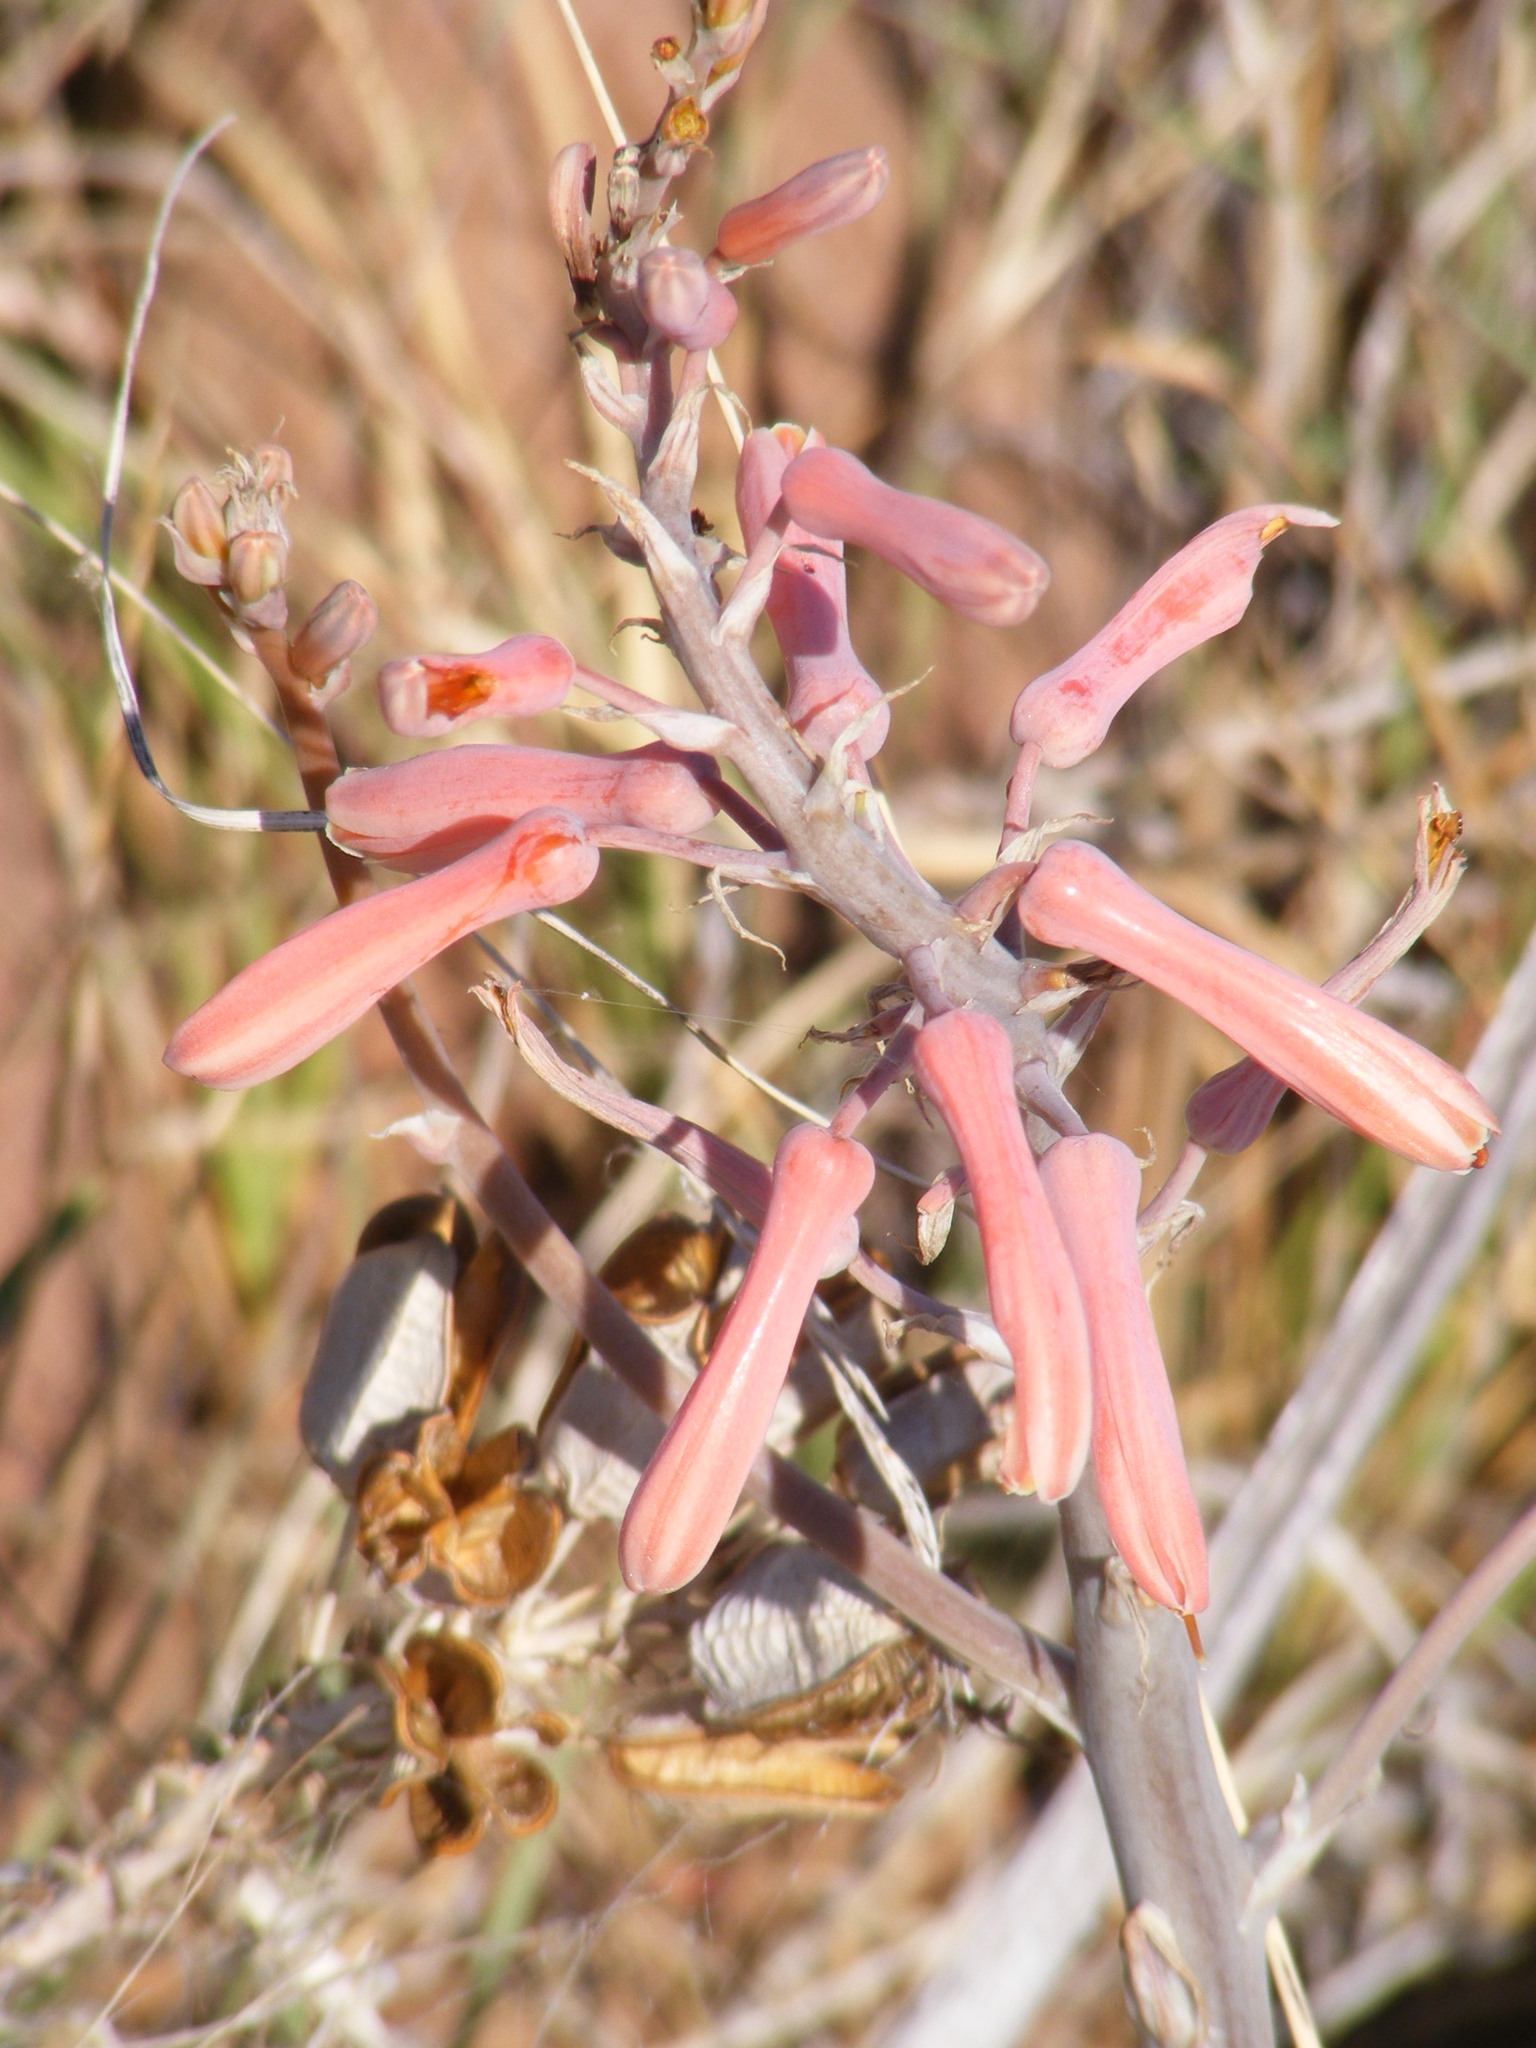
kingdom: Plantae
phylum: Tracheophyta
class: Liliopsida
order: Asparagales
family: Asphodelaceae
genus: Aloe
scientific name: Aloe davyana
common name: Spotted aloe
